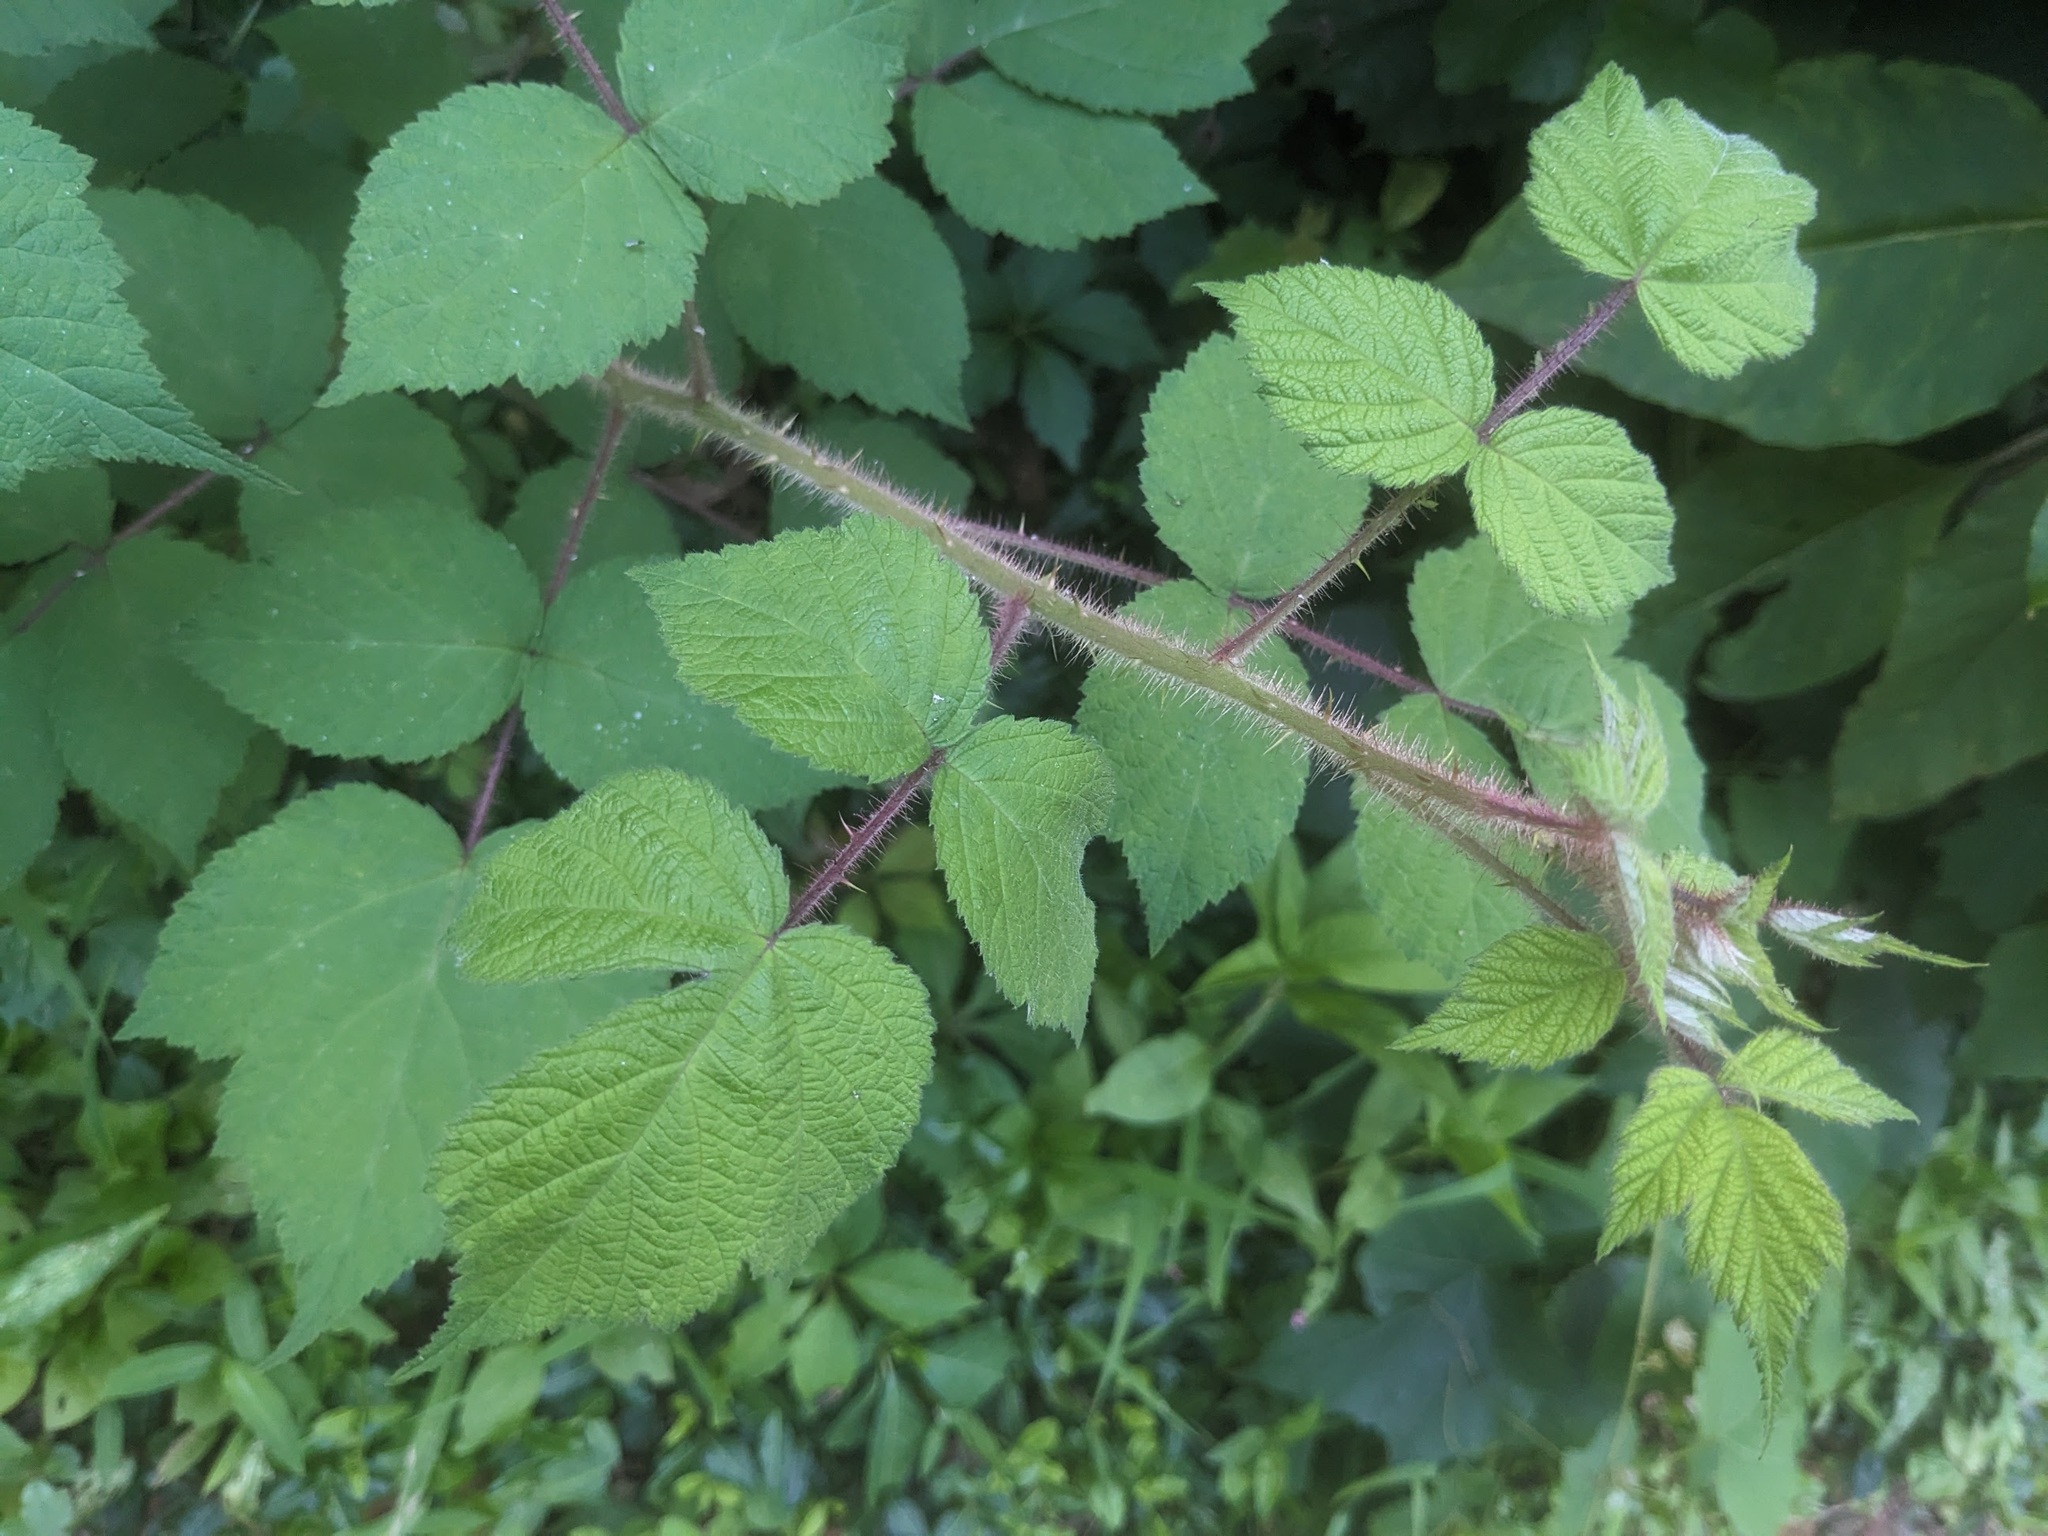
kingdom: Plantae
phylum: Tracheophyta
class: Magnoliopsida
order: Rosales
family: Rosaceae
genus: Rubus
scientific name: Rubus phoenicolasius
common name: Japanese wineberry
